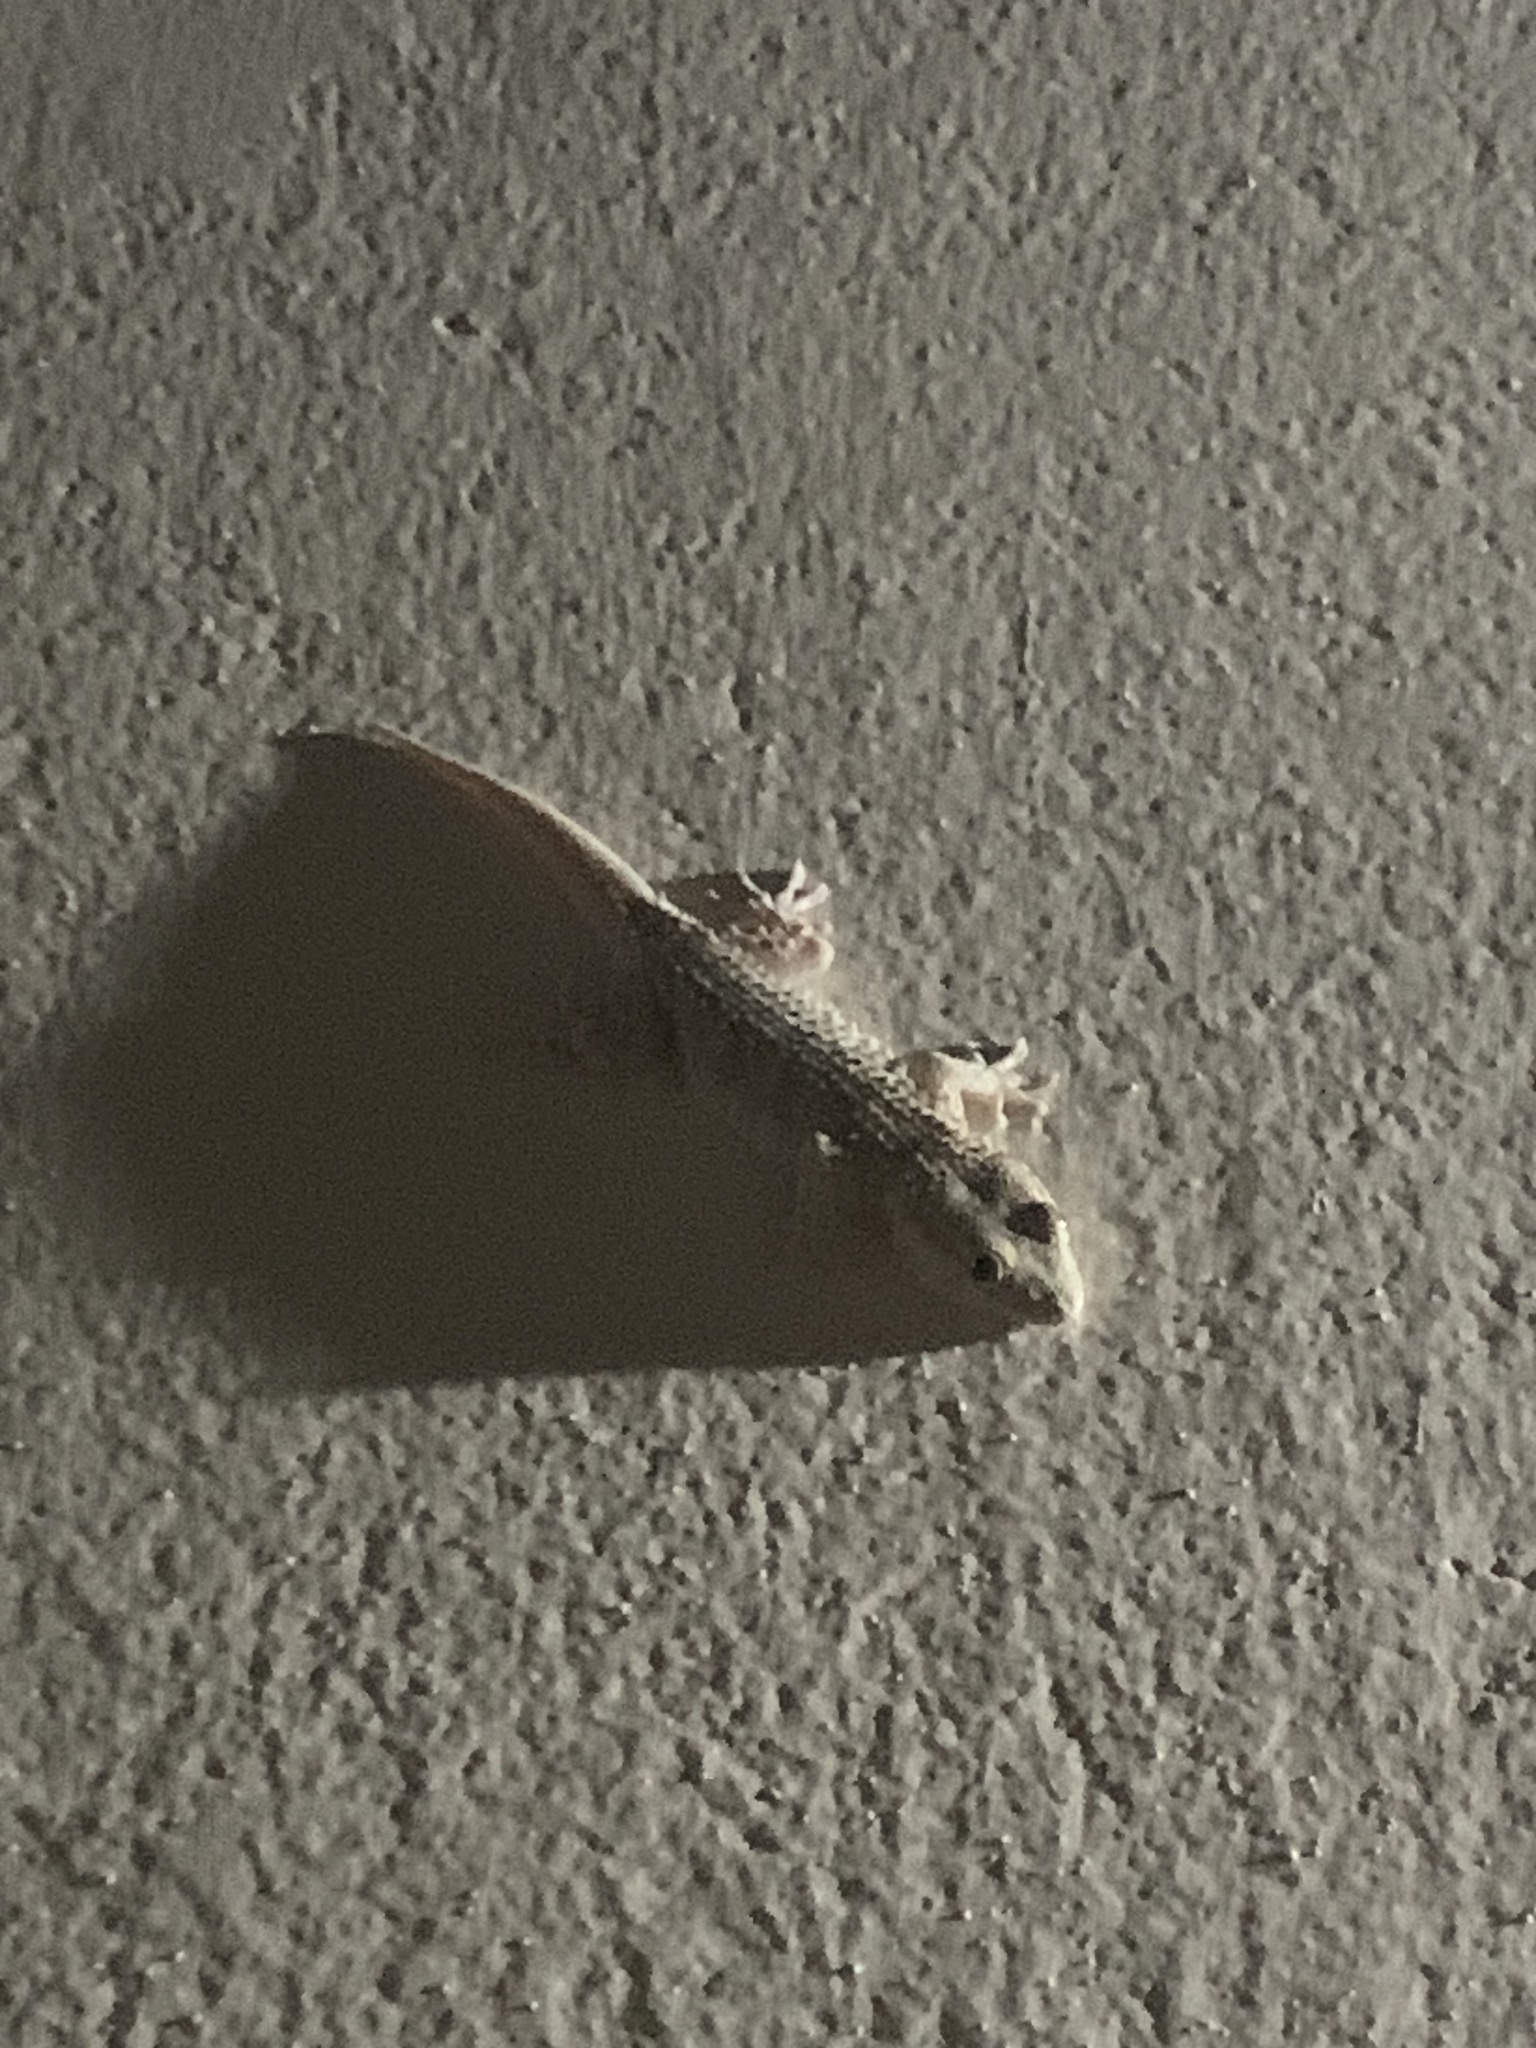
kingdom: Animalia
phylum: Chordata
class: Squamata
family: Phyllodactylidae
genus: Tarentola
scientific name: Tarentola mauritanica
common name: Moorish gecko
